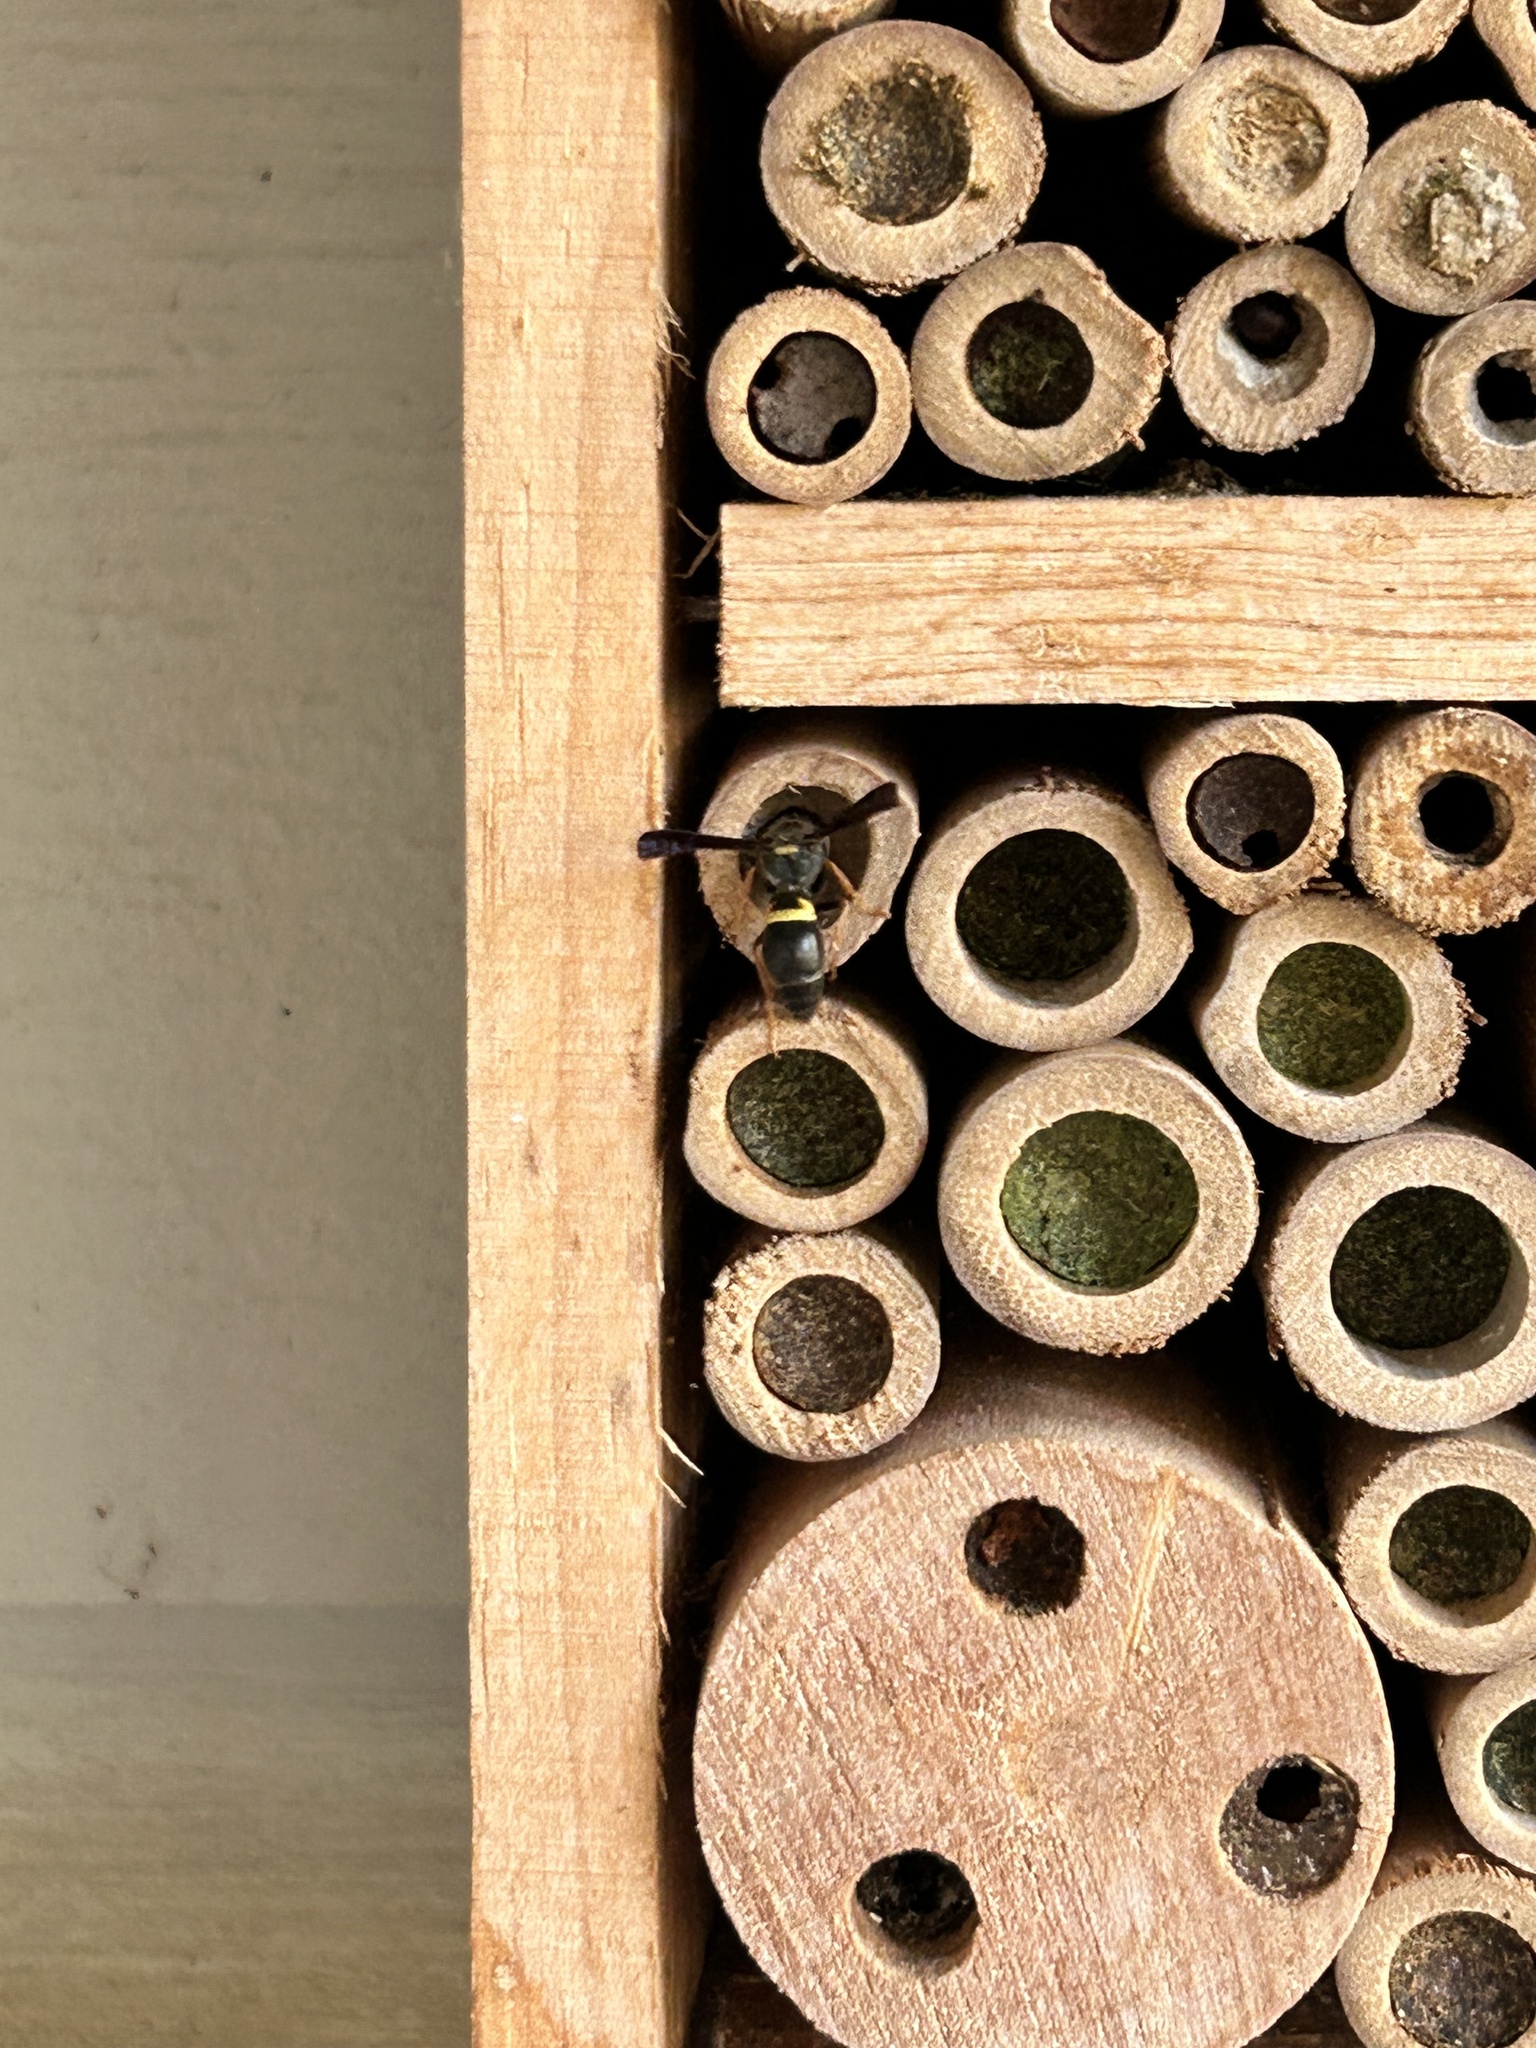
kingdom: Animalia
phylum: Arthropoda
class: Insecta
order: Hymenoptera
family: Vespidae
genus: Ancistrocerus
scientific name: Ancistrocerus unifasciatus
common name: One-banded mason wasp
